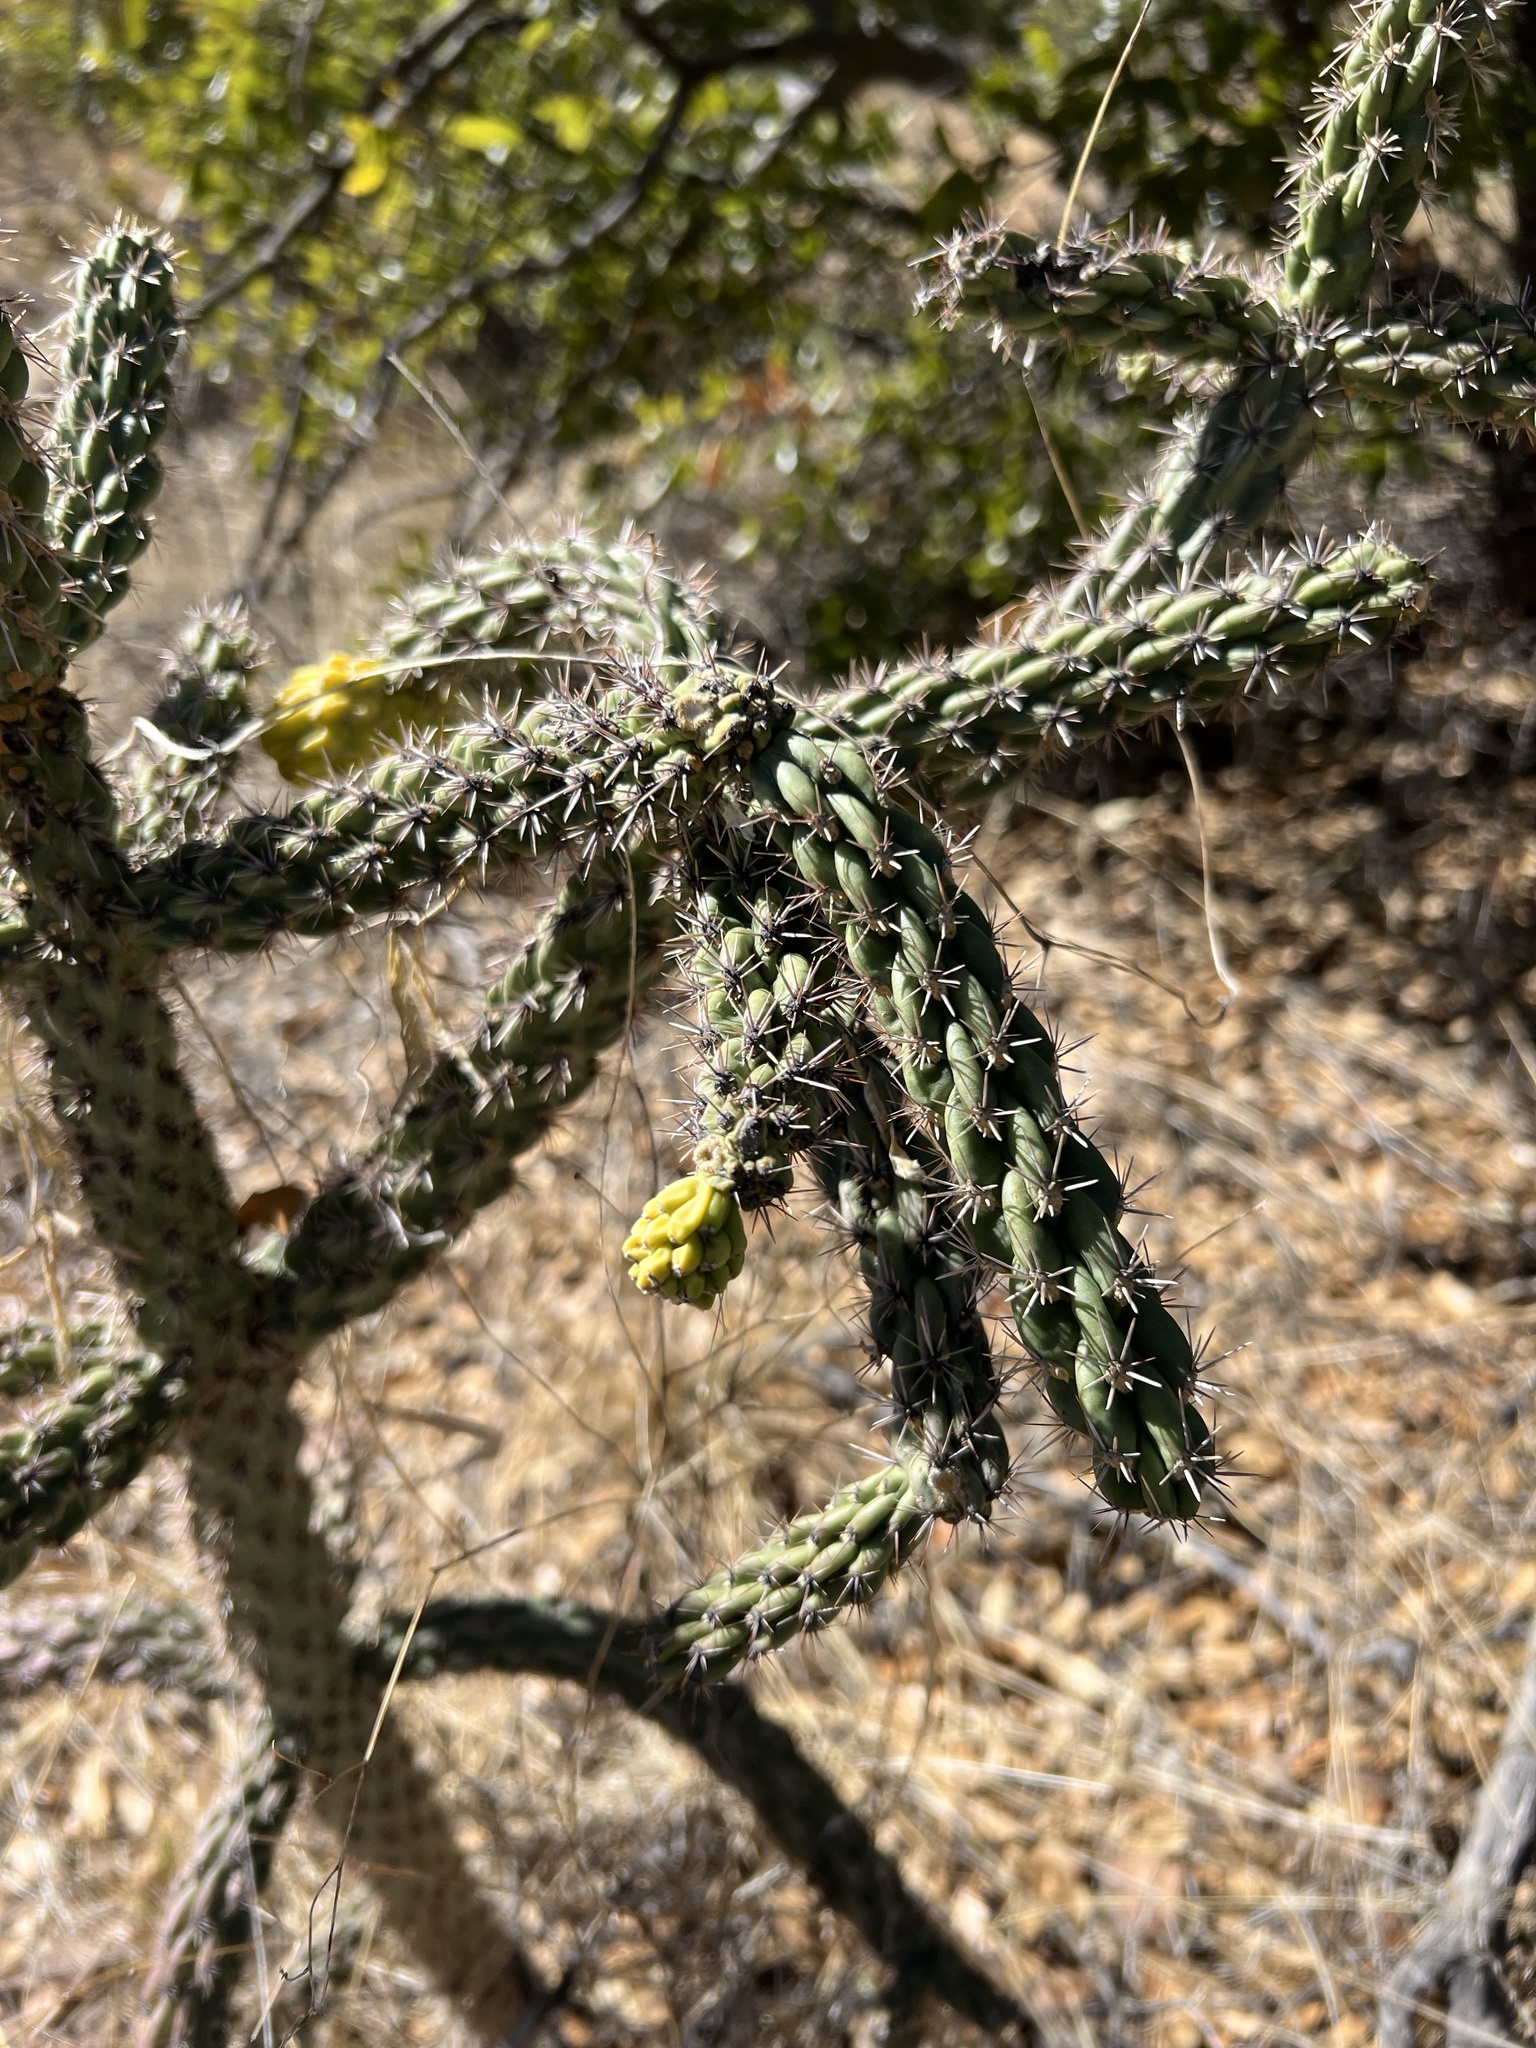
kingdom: Plantae
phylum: Tracheophyta
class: Magnoliopsida
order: Caryophyllales
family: Cactaceae
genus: Cylindropuntia
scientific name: Cylindropuntia imbricata
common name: Candelabrum cactus
